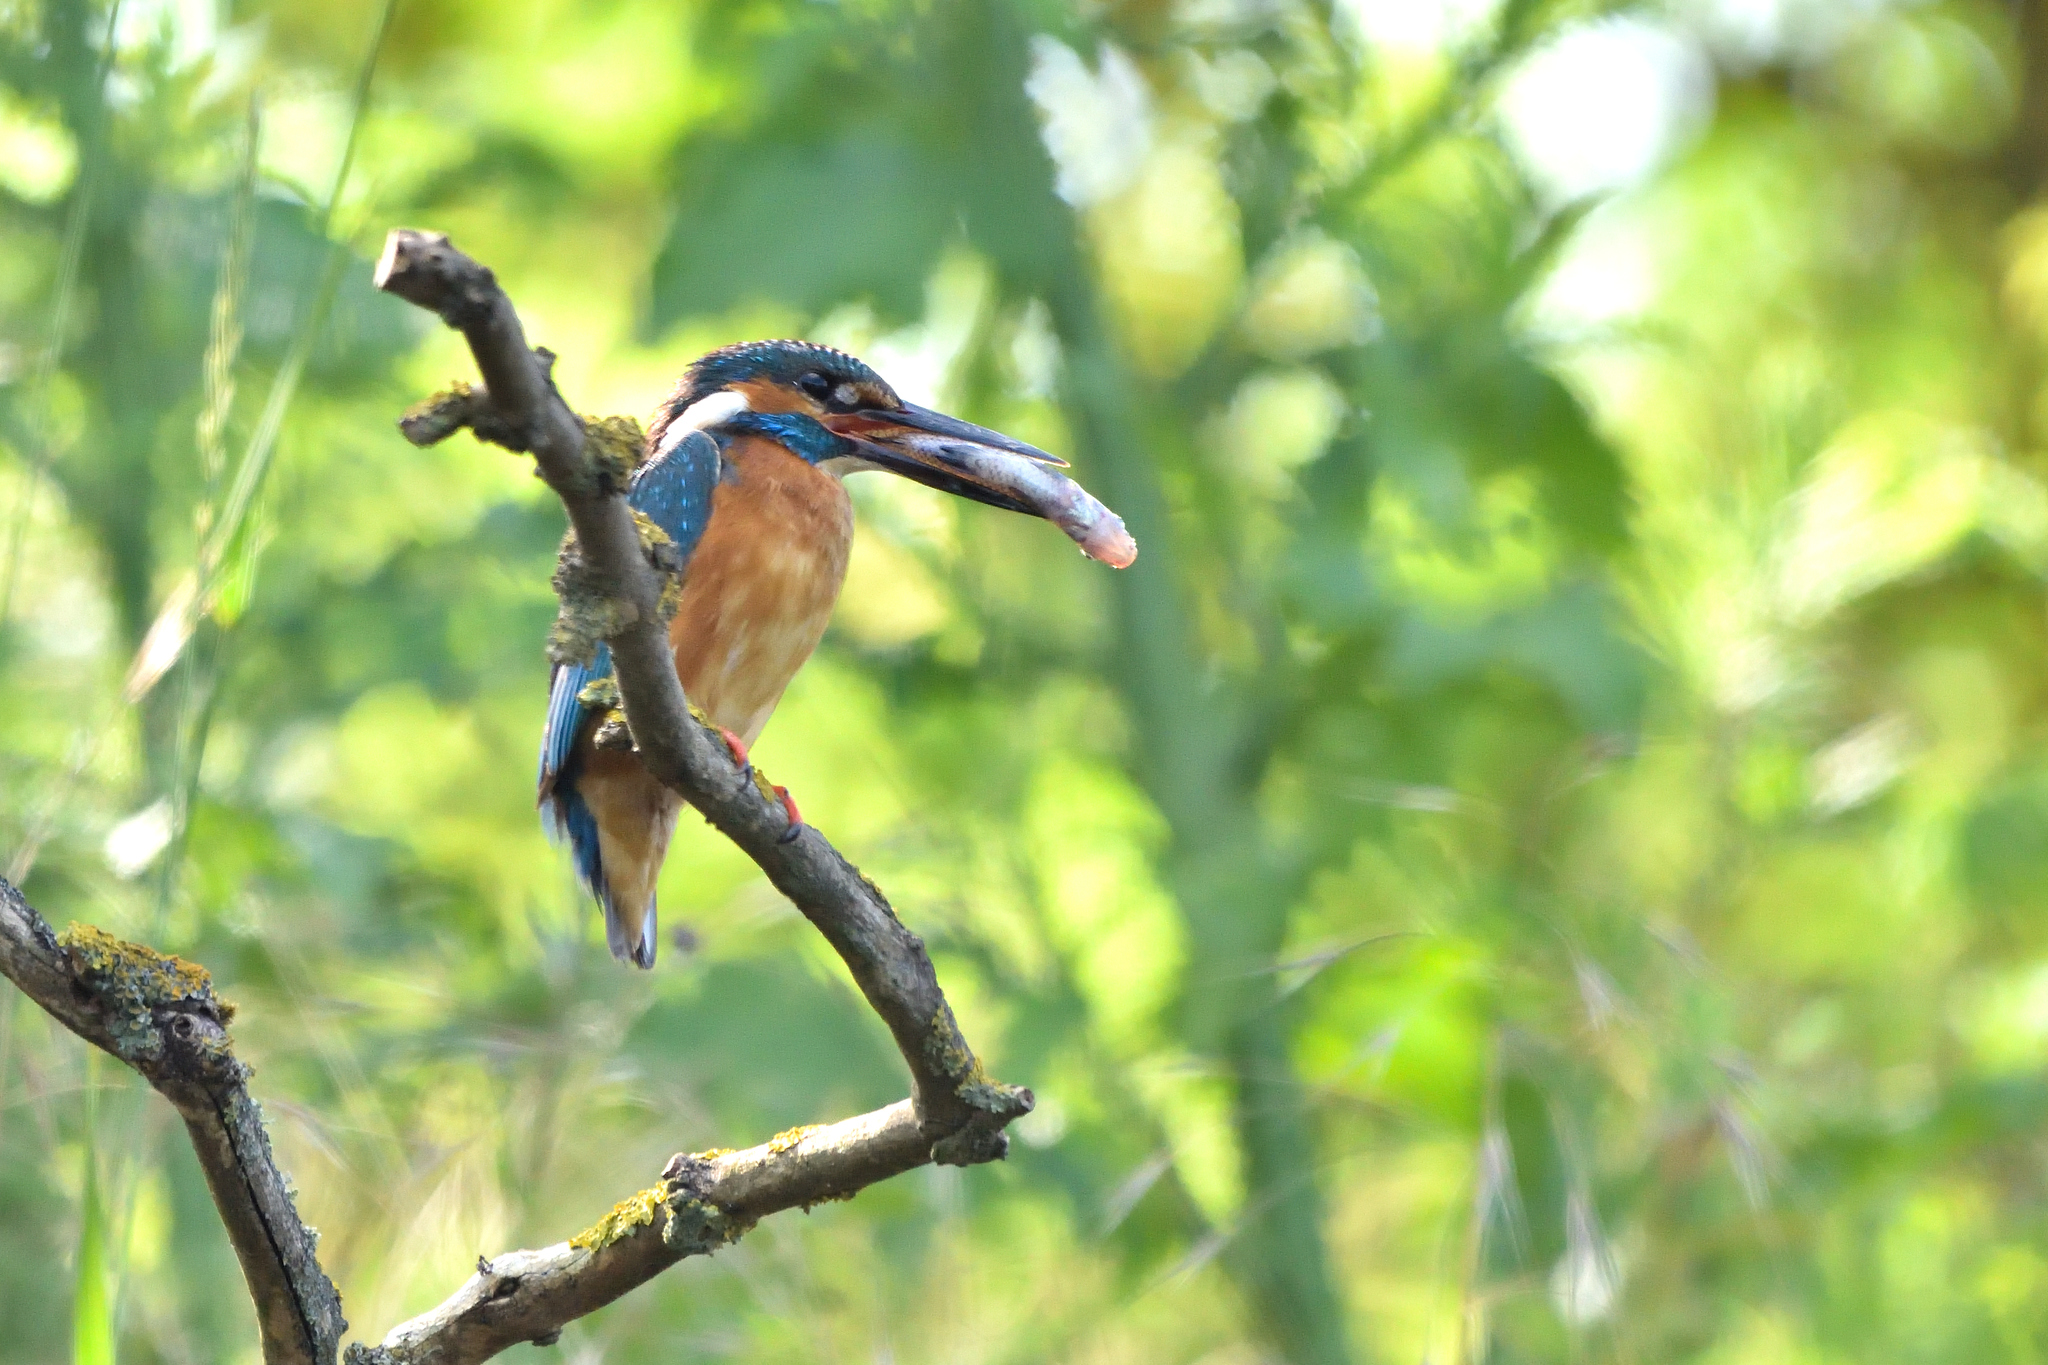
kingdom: Animalia
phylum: Chordata
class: Aves
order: Coraciiformes
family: Alcedinidae
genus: Alcedo
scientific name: Alcedo atthis
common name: Common kingfisher
